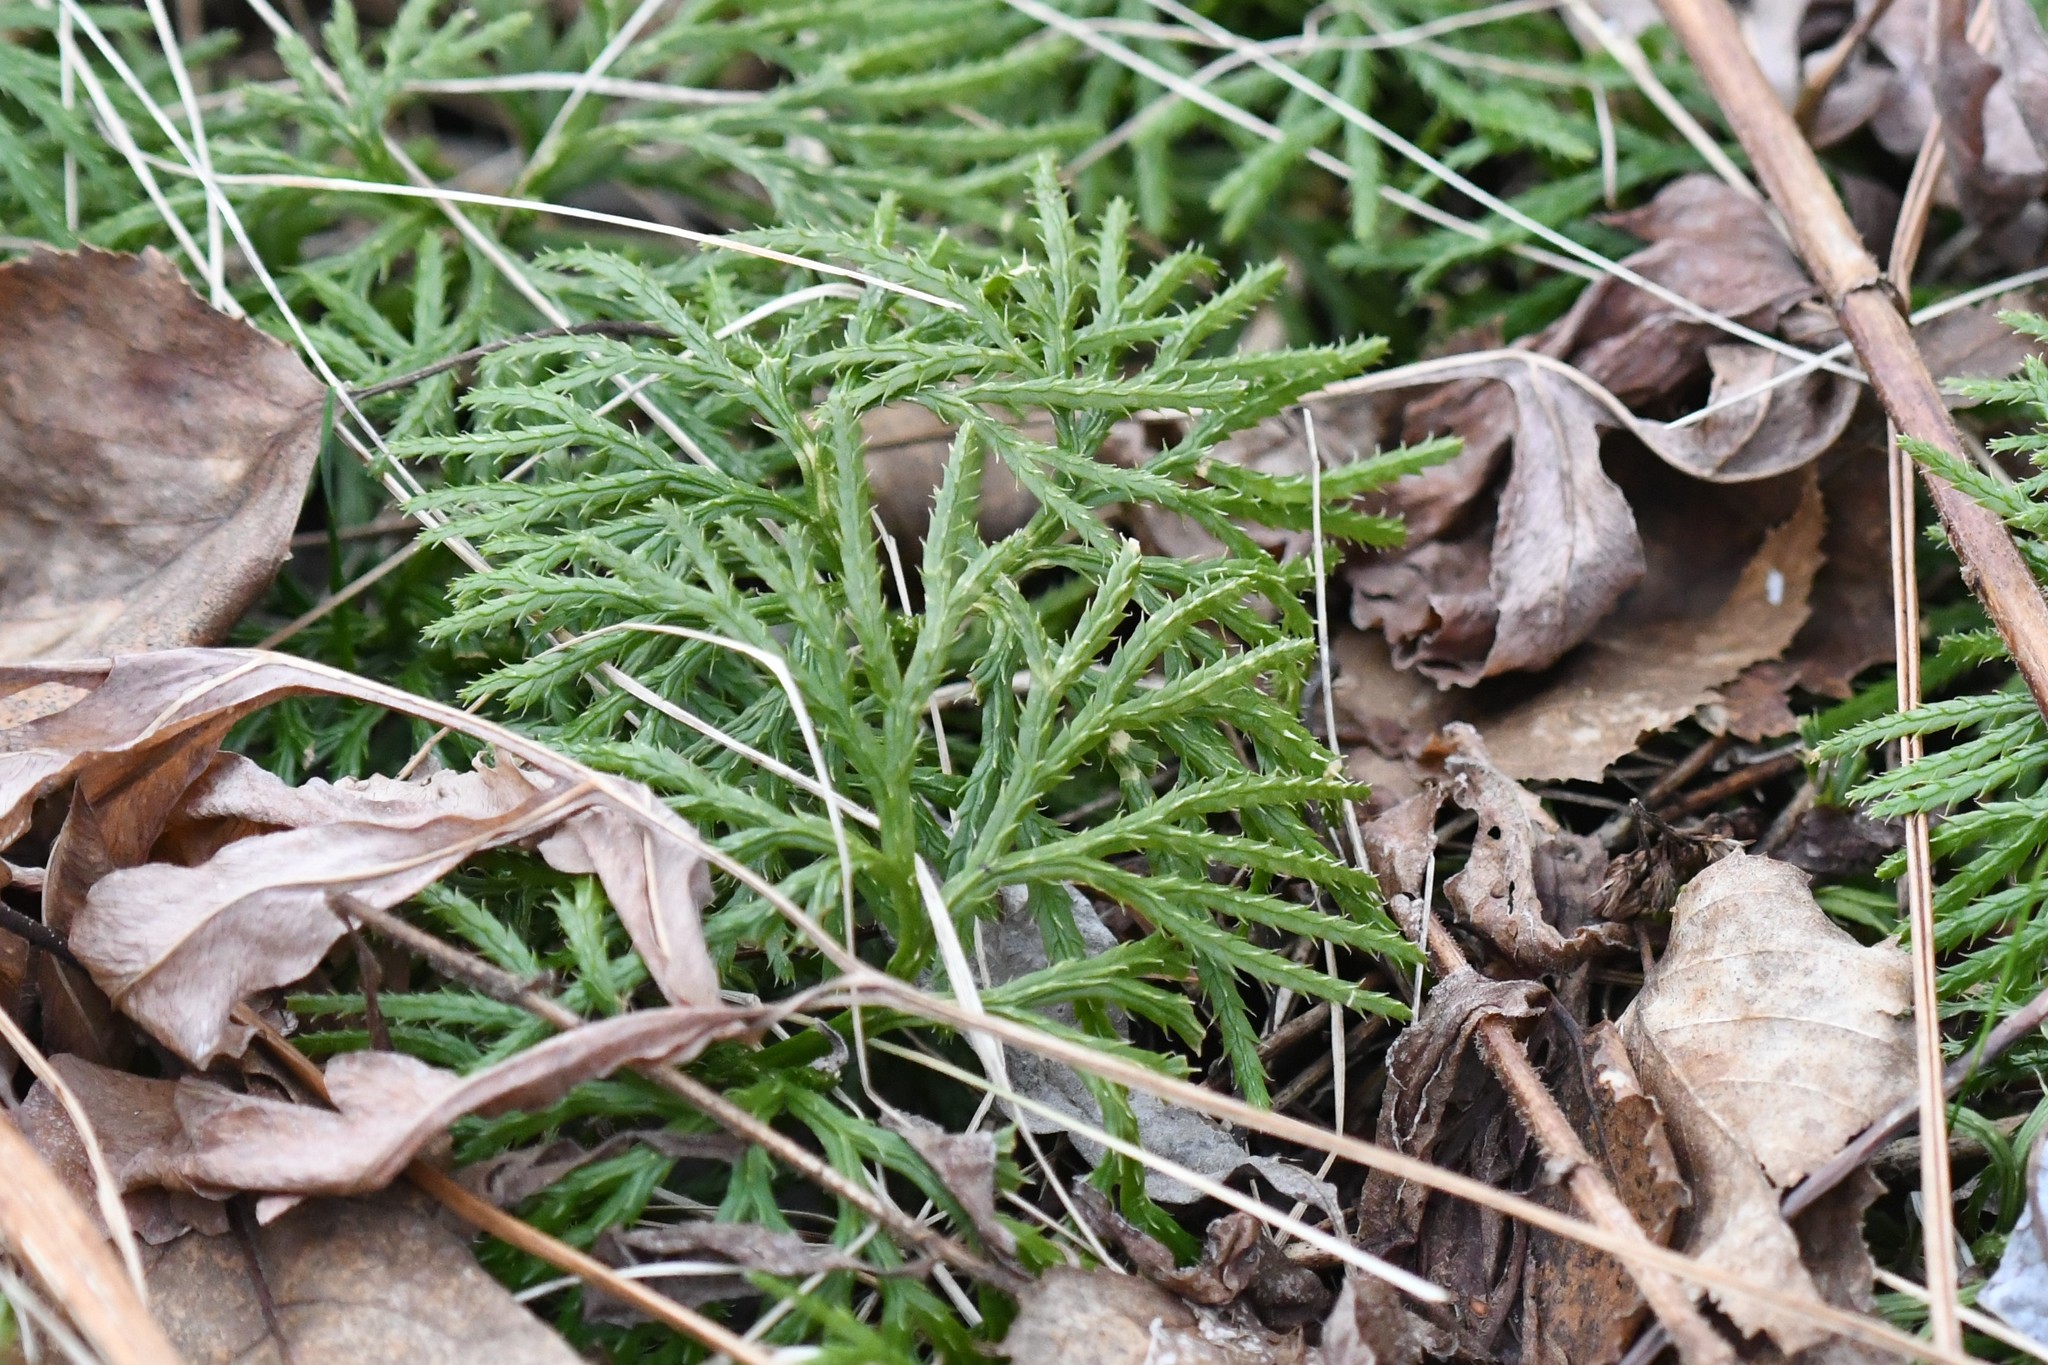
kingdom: Plantae
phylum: Tracheophyta
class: Lycopodiopsida
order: Lycopodiales
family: Lycopodiaceae
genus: Diphasiastrum
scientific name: Diphasiastrum digitatum
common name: Southern running-pine
